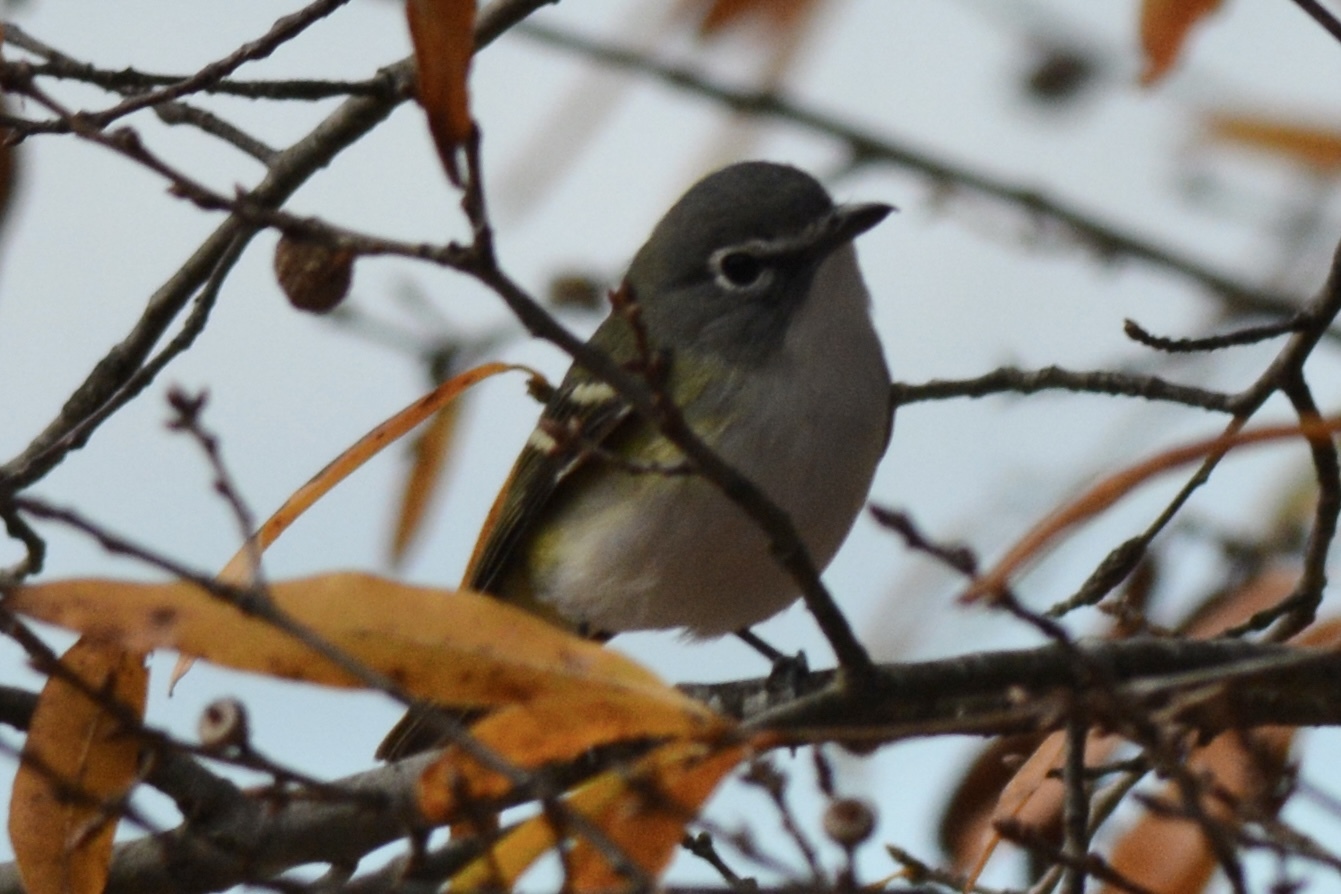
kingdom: Animalia
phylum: Chordata
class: Aves
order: Passeriformes
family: Vireonidae
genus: Vireo
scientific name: Vireo solitarius
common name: Blue-headed vireo
